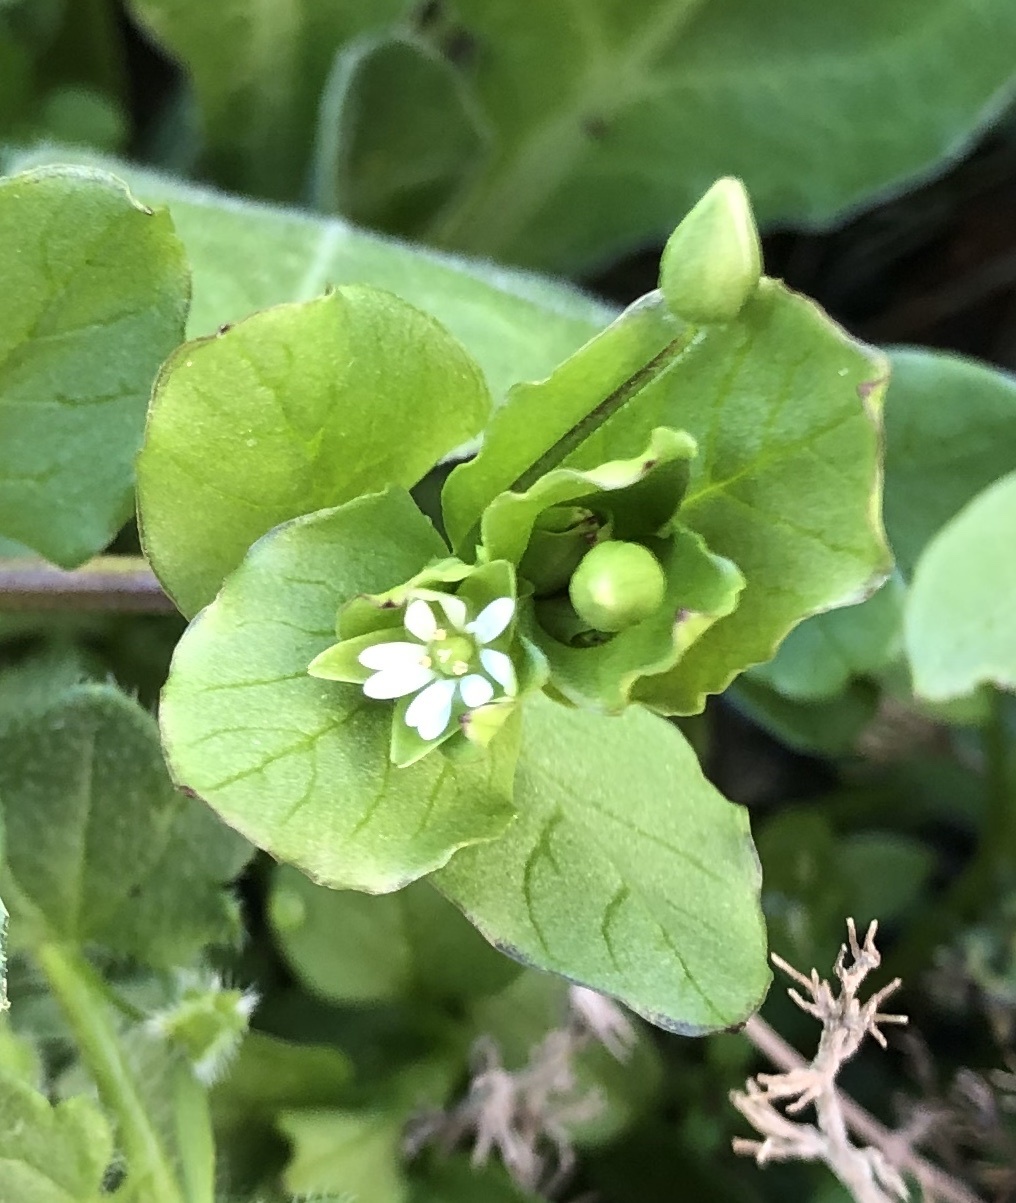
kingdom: Plantae
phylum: Tracheophyta
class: Magnoliopsida
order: Caryophyllales
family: Caryophyllaceae
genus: Stellaria
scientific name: Stellaria media
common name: Common chickweed
